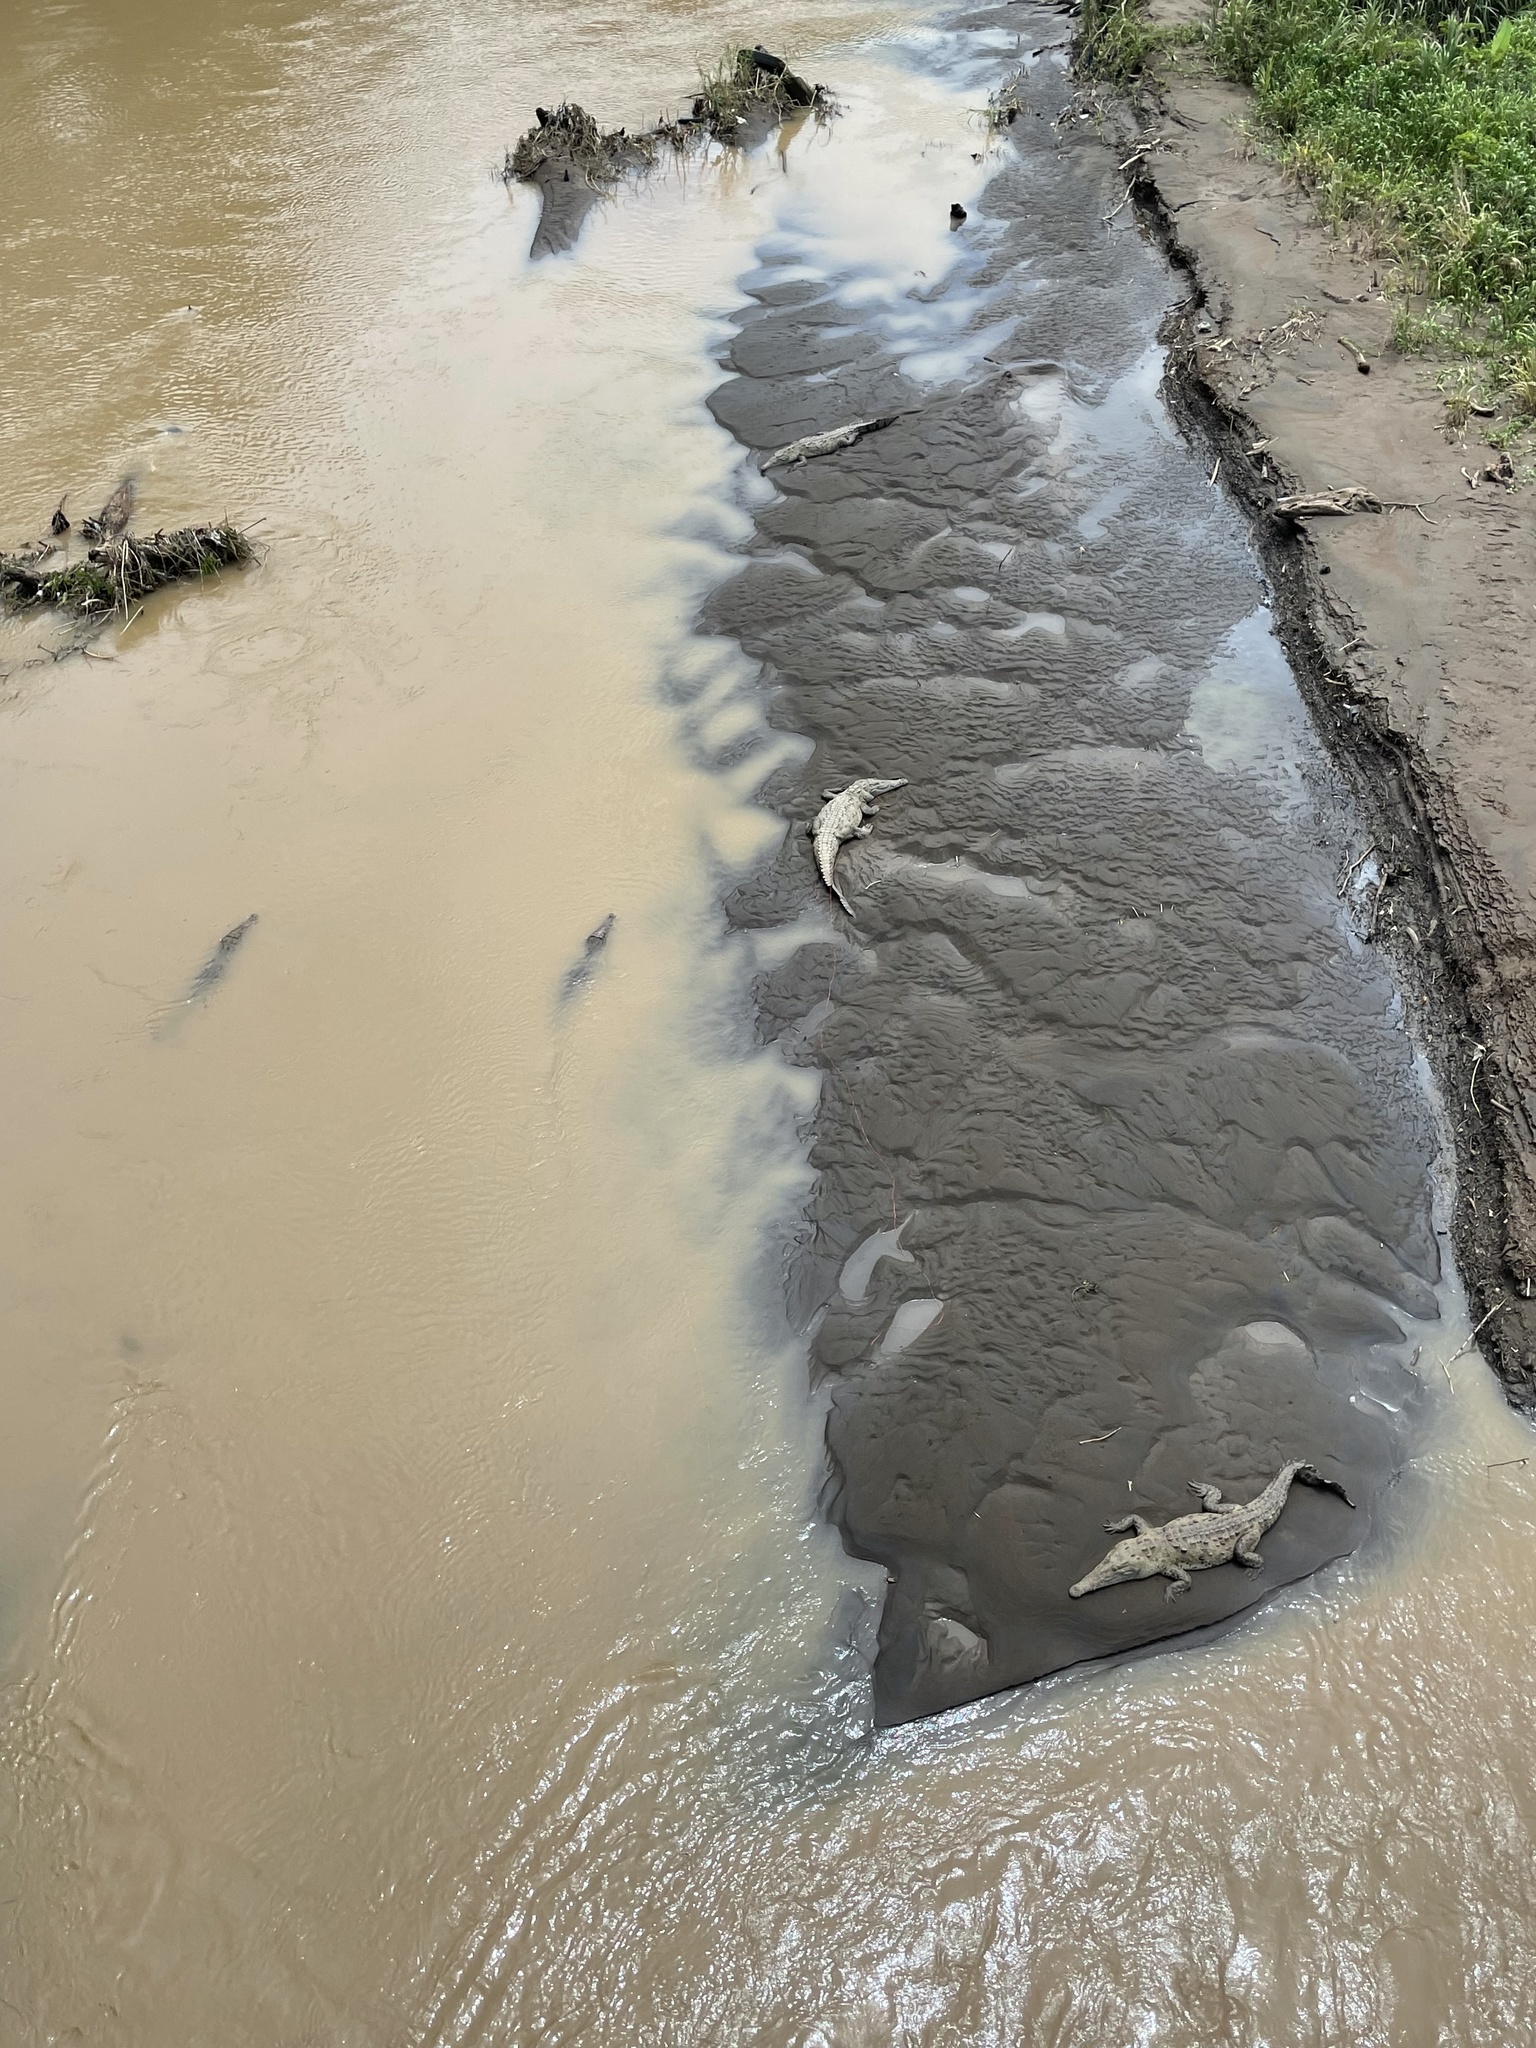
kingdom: Animalia
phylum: Chordata
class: Crocodylia
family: Crocodylidae
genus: Crocodylus
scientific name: Crocodylus acutus
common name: American crocodile
